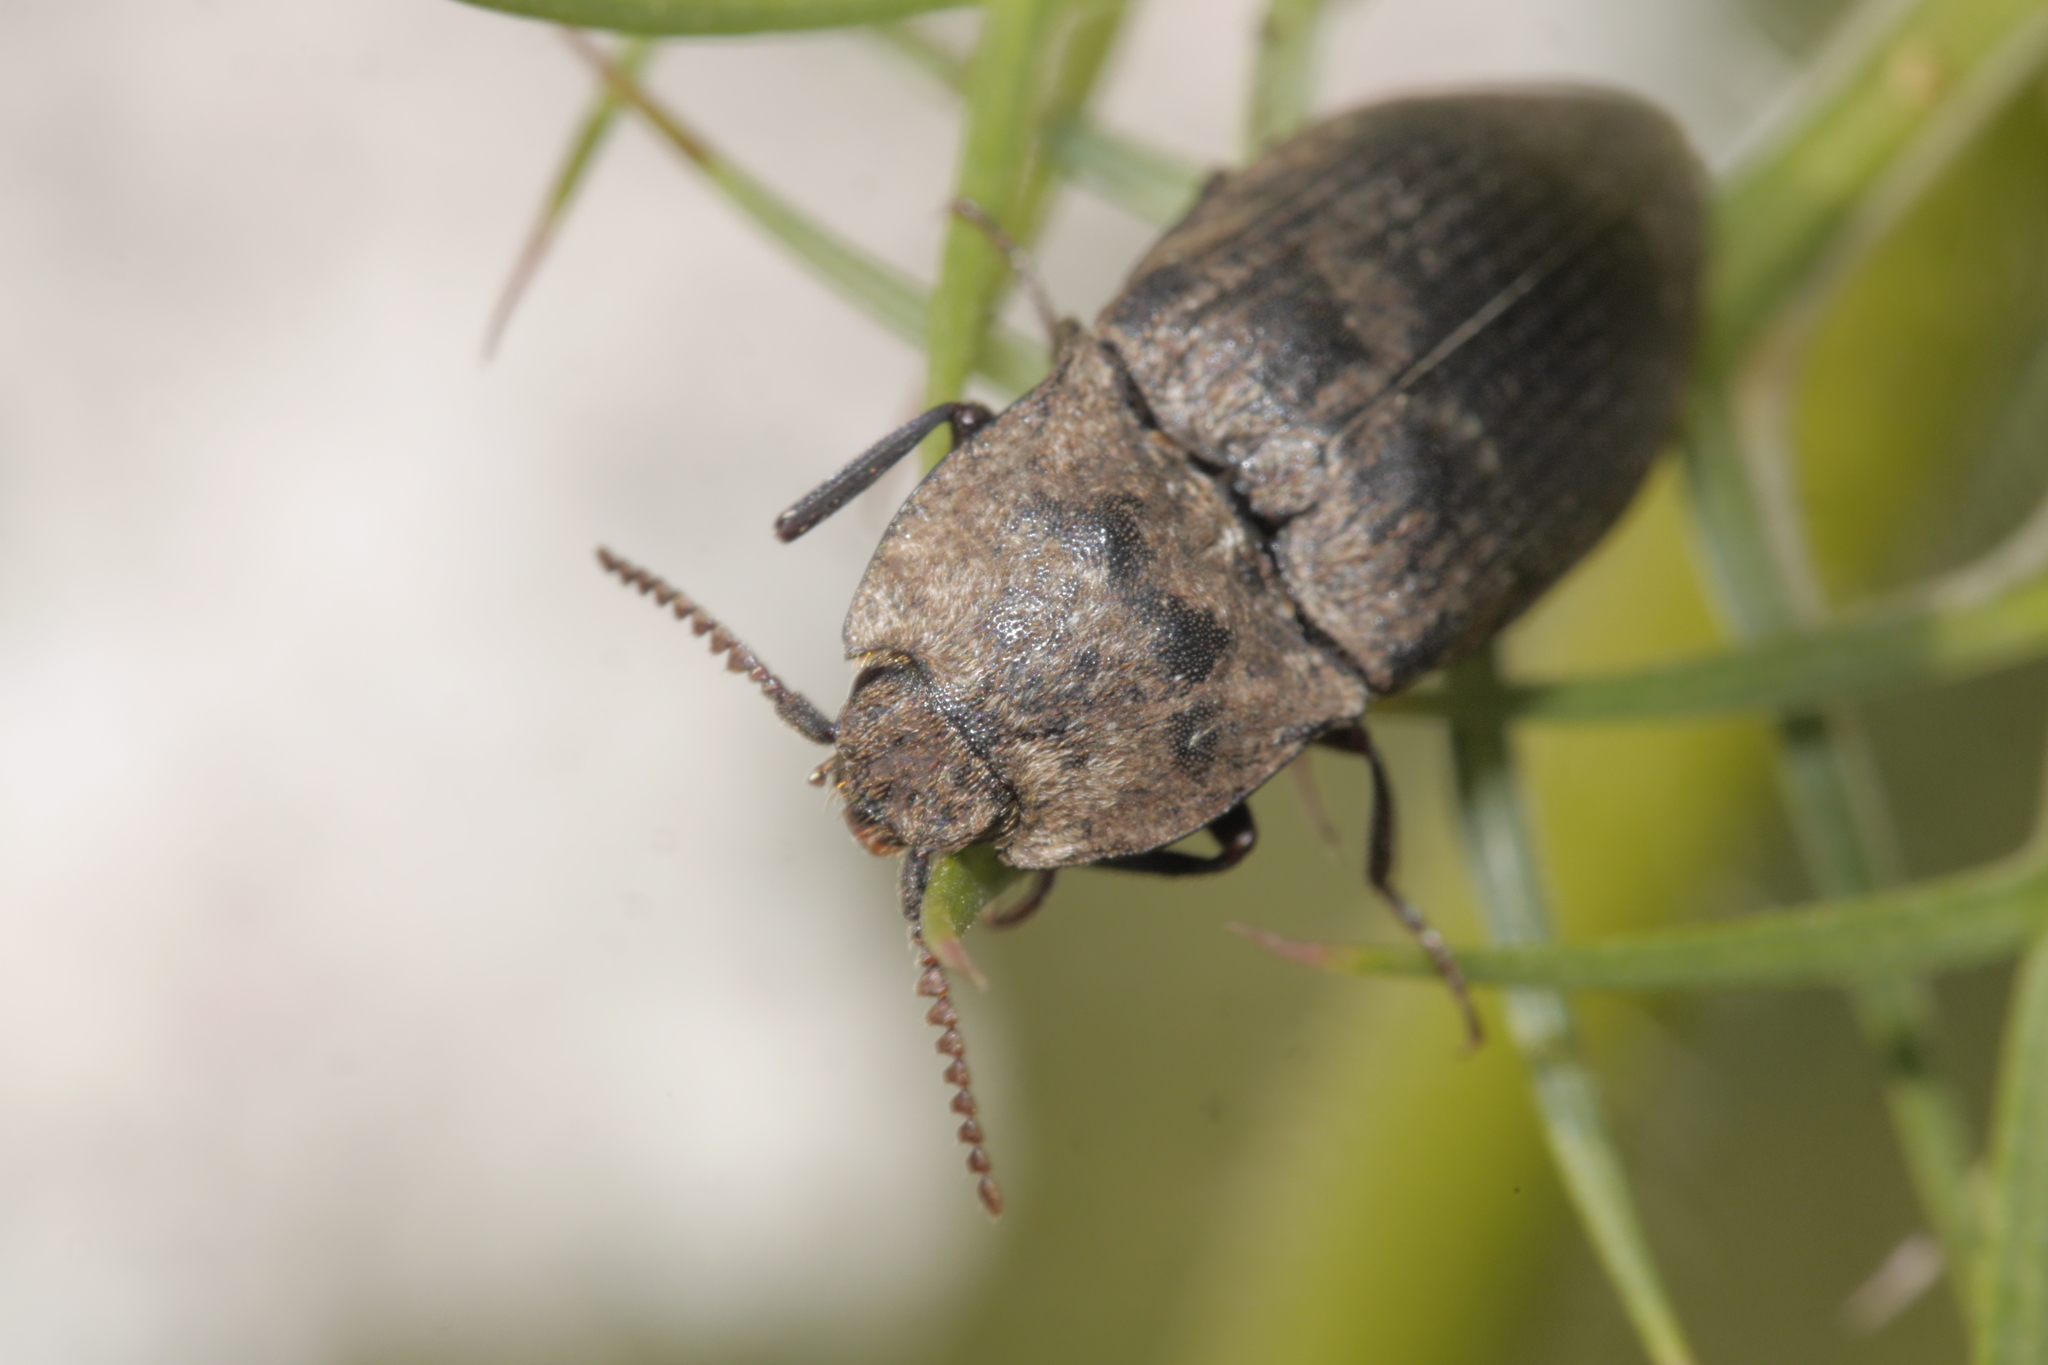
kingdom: Animalia
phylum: Arthropoda
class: Insecta
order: Coleoptera
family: Elateridae
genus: Agrypnus
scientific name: Agrypnus murinus
